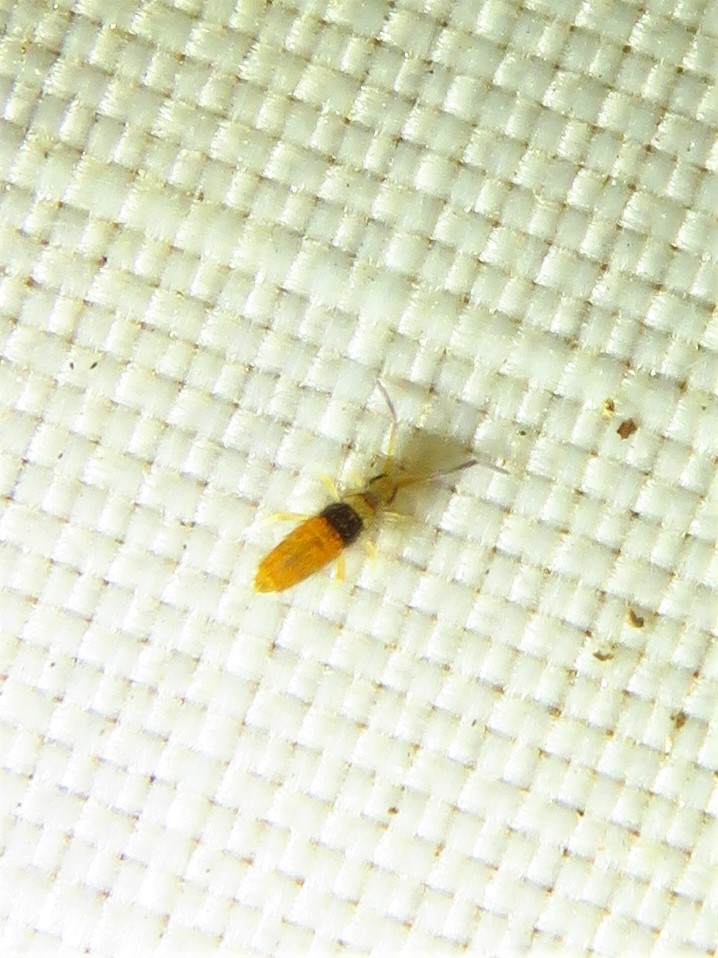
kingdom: Animalia
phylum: Arthropoda
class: Collembola
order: Entomobryomorpha
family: Entomobryidae
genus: Entomobrya
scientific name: Entomobrya atrocincta
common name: Springtail
